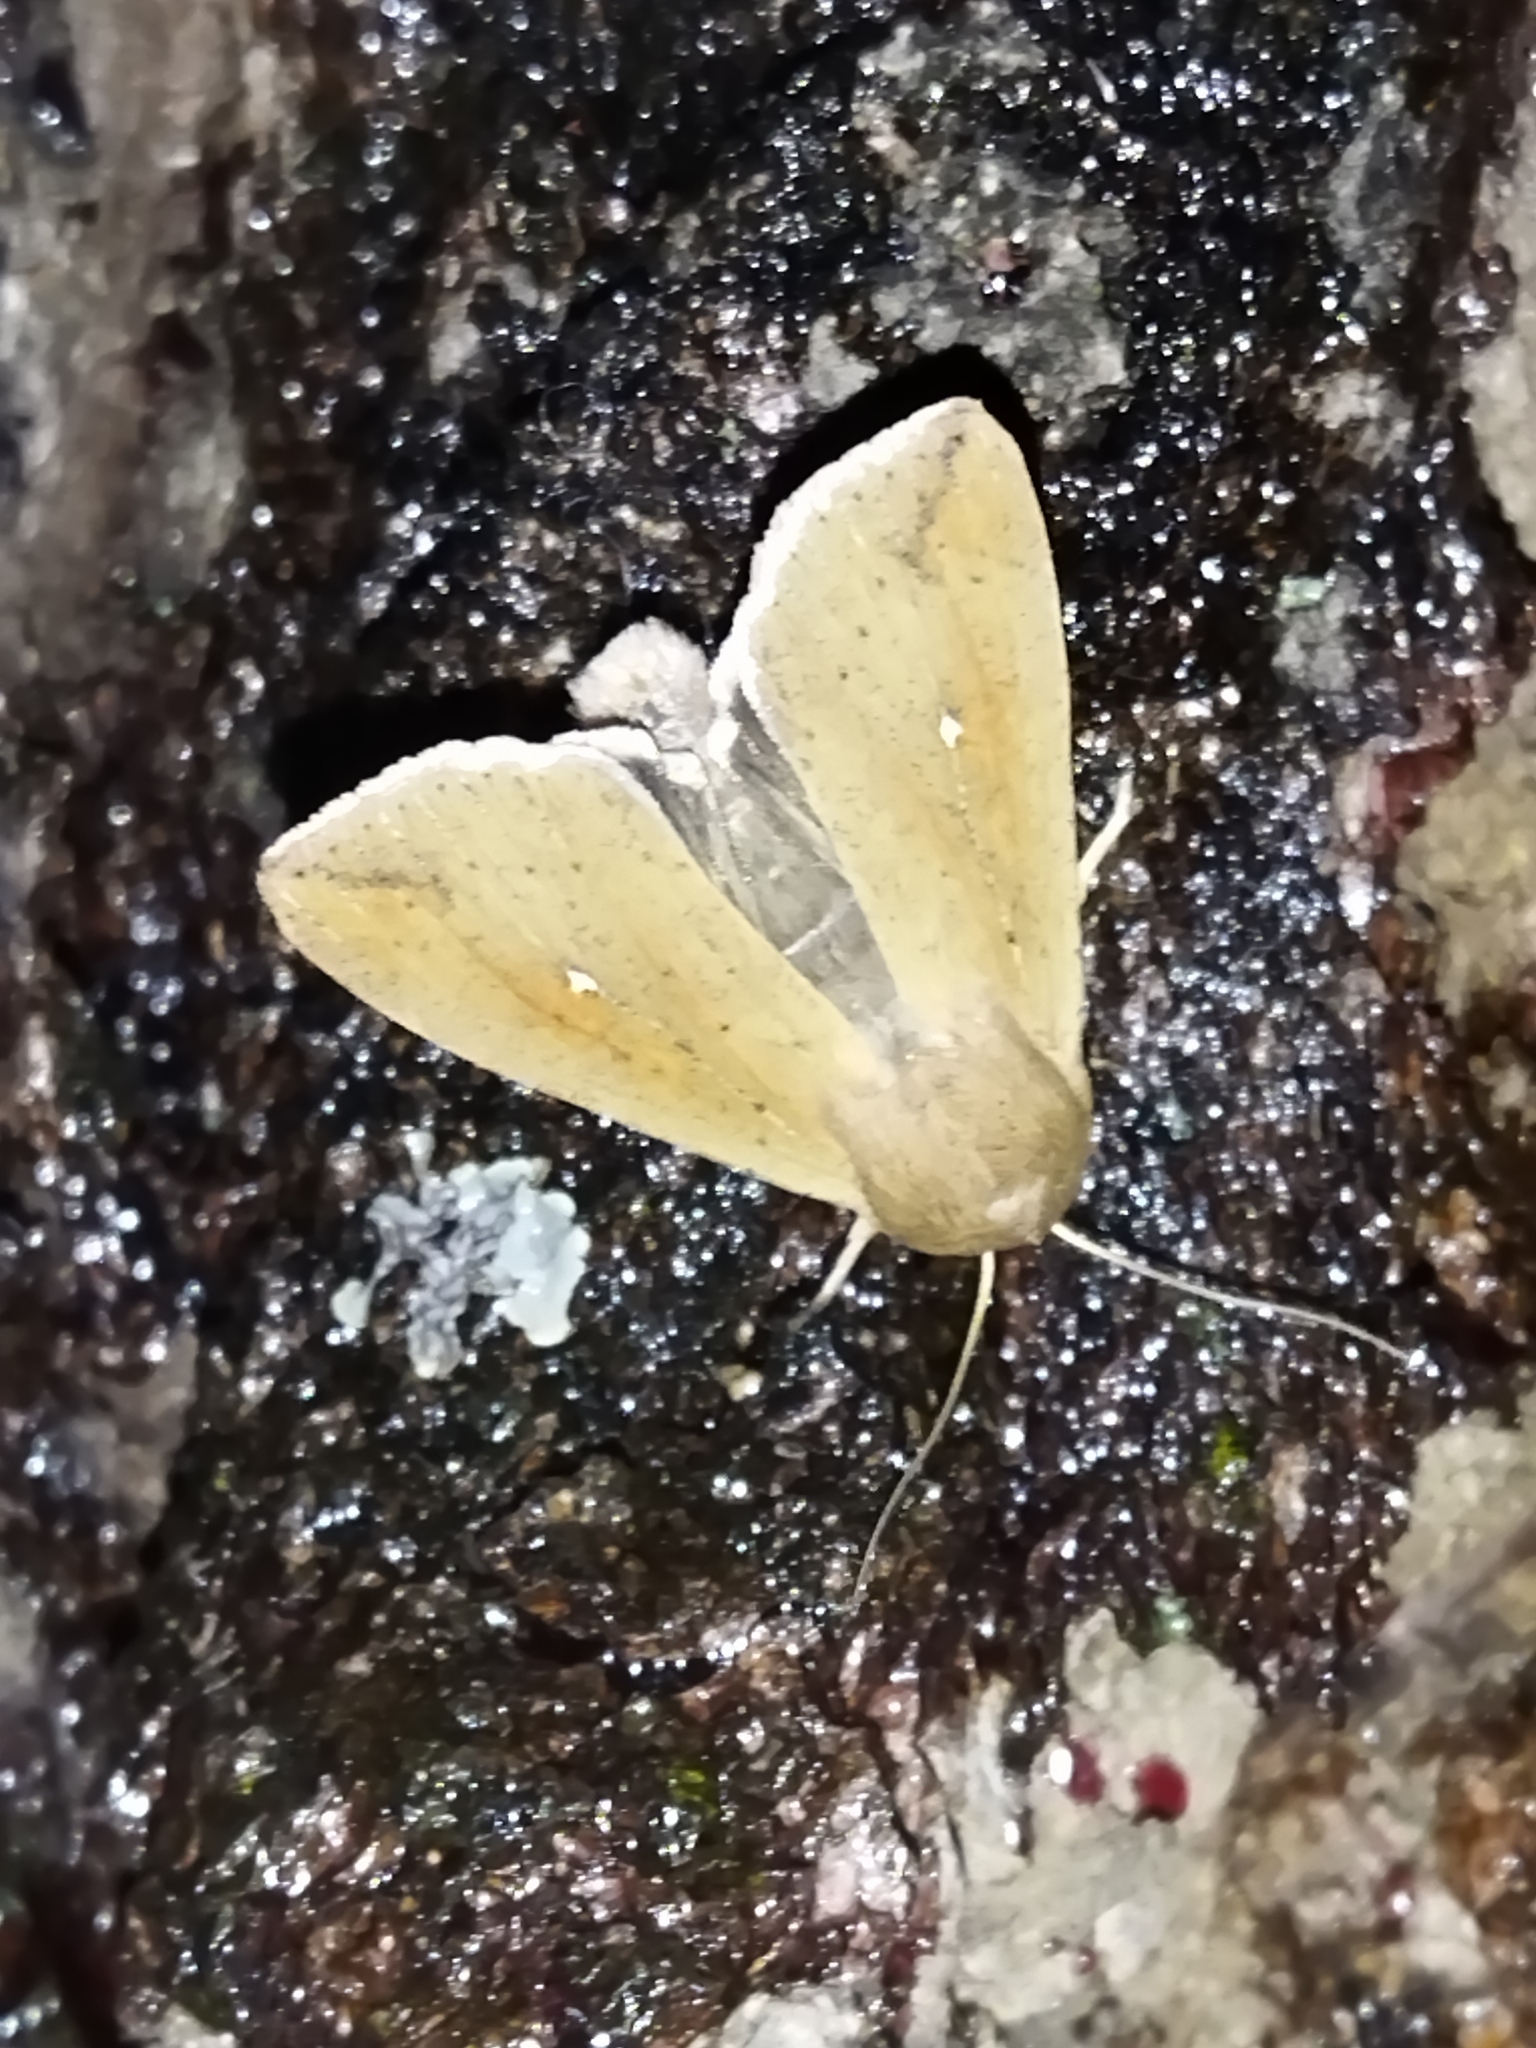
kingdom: Animalia
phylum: Arthropoda
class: Insecta
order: Lepidoptera
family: Noctuidae
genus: Mythimna
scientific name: Mythimna unipuncta
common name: White-speck
